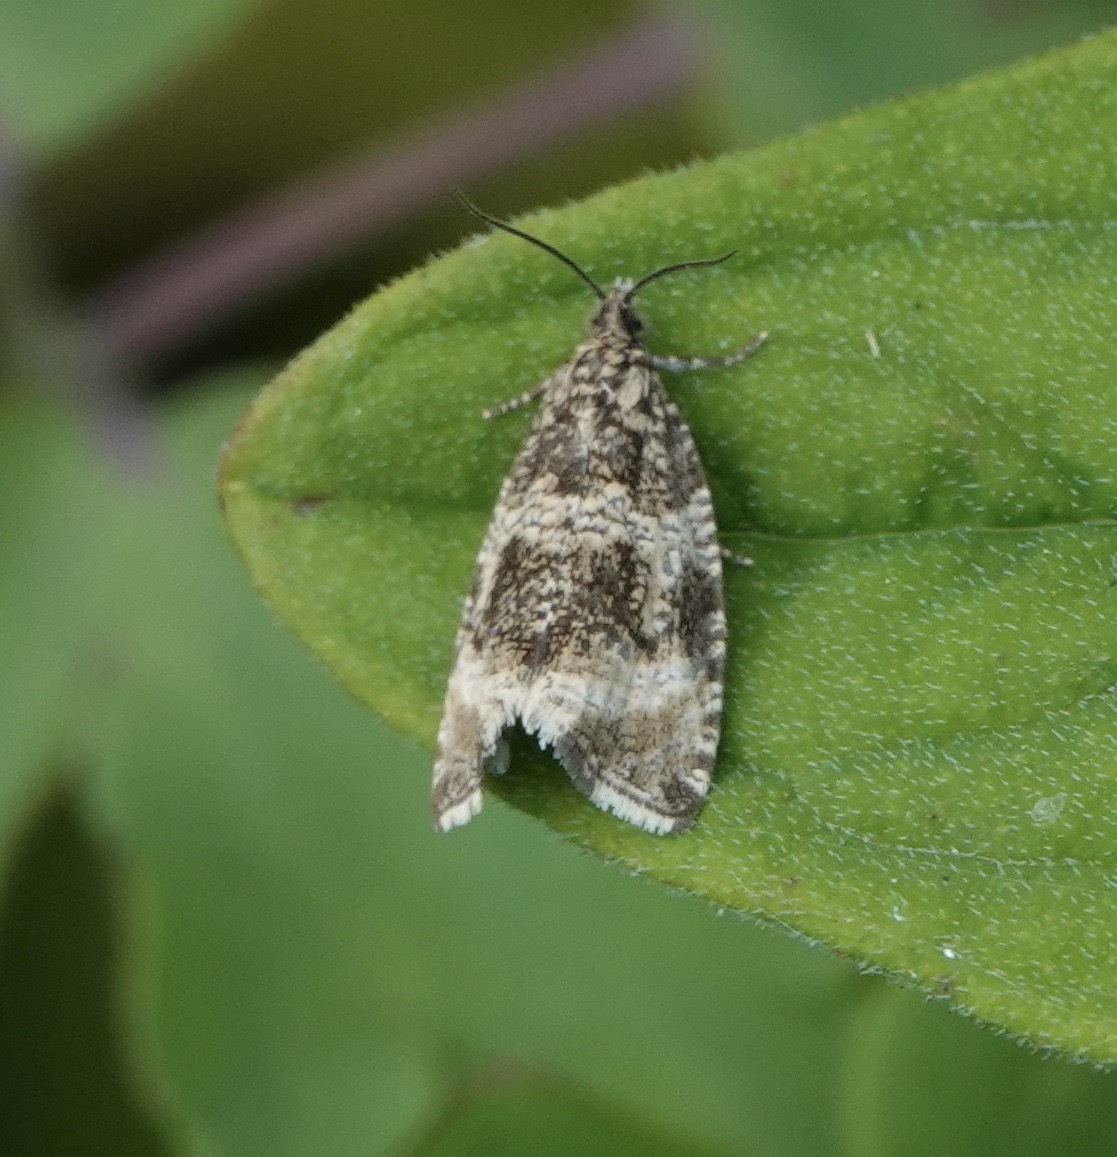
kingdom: Animalia
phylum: Arthropoda
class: Insecta
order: Lepidoptera
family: Tortricidae
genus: Syricoris
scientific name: Syricoris lacunana
